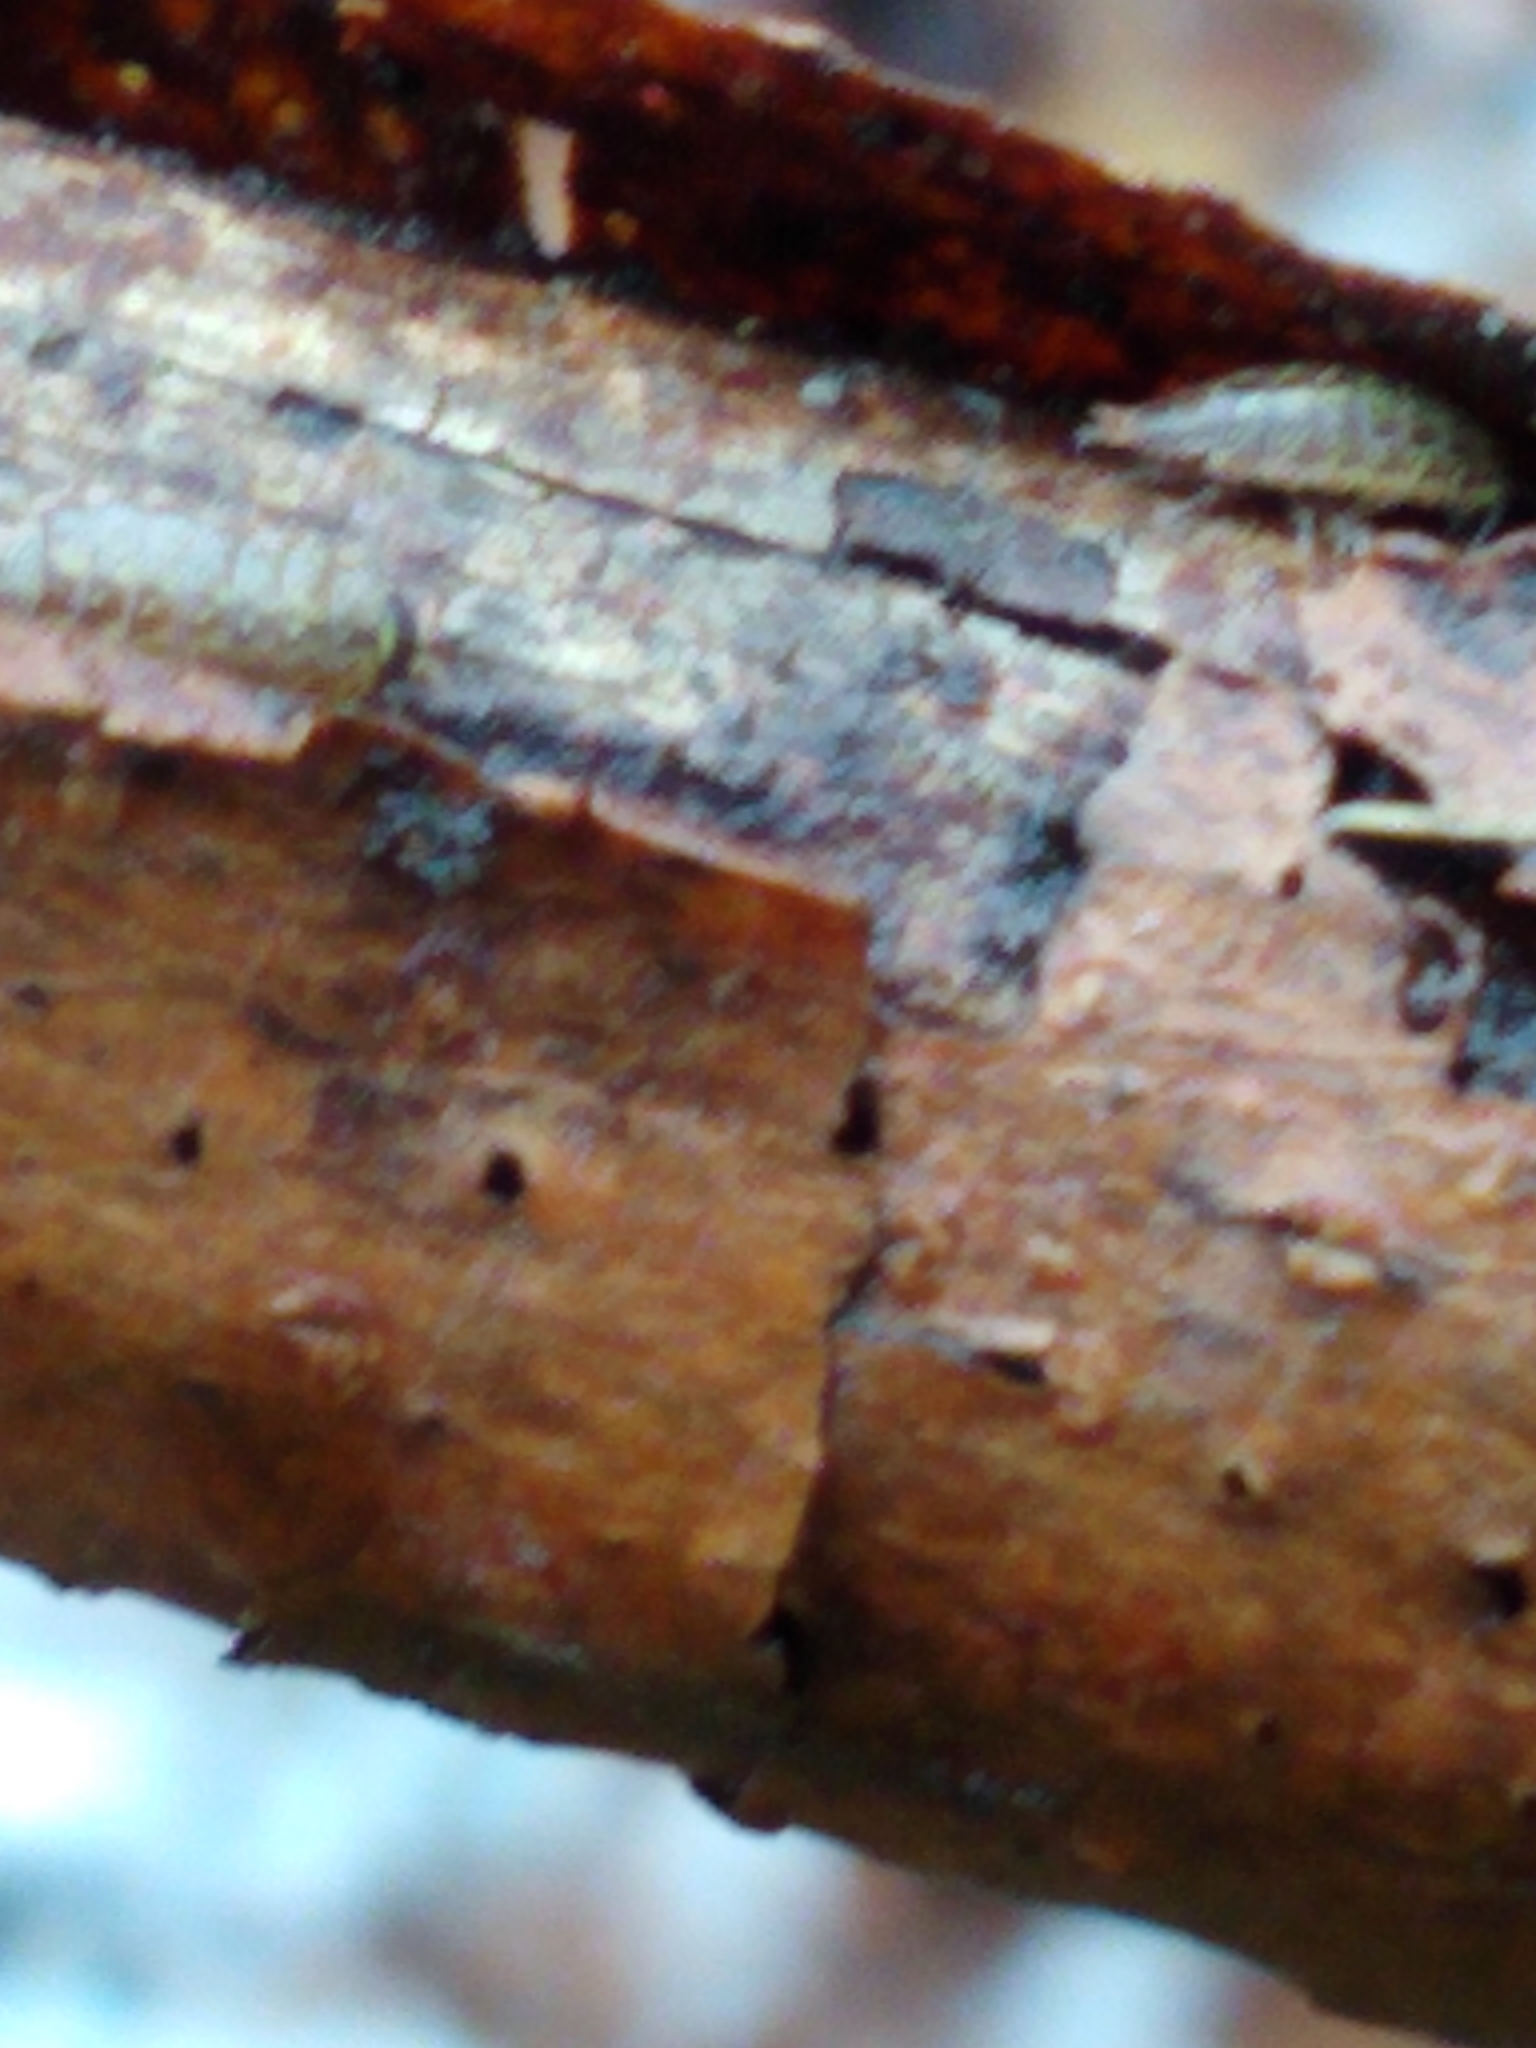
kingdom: Animalia
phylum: Arthropoda
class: Malacostraca
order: Isopoda
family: Philosciidae
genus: Philoscia
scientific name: Philoscia muscorum
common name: Common striped woodlouse
